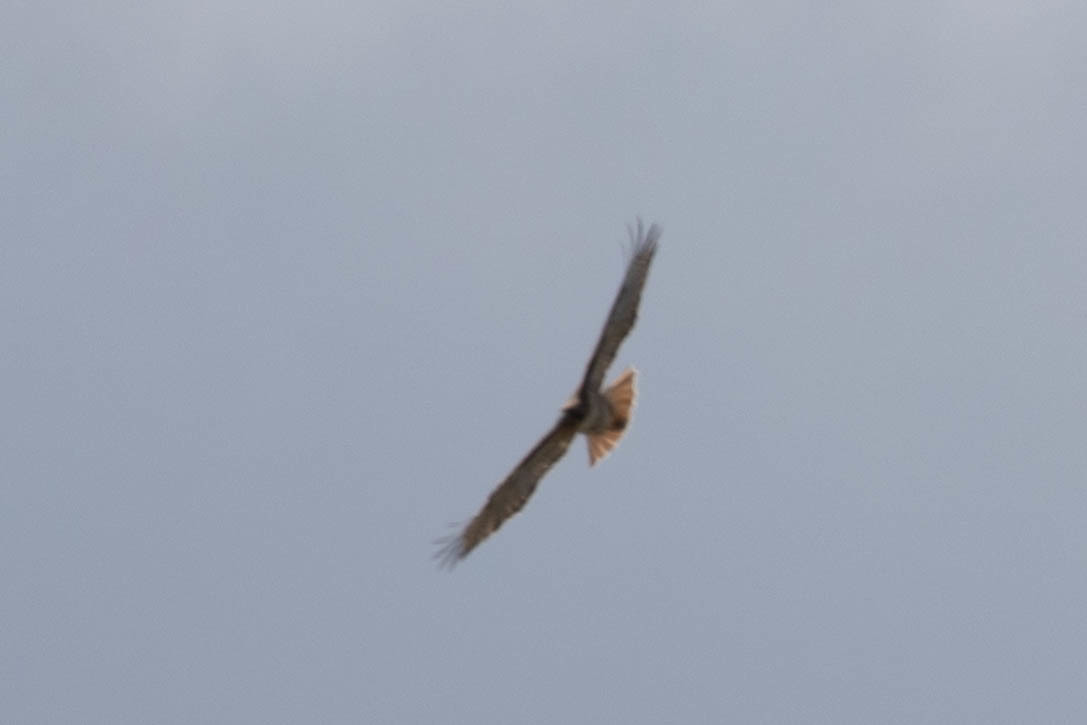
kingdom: Animalia
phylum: Chordata
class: Aves
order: Accipitriformes
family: Accipitridae
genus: Buteo
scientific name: Buteo jamaicensis
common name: Red-tailed hawk
